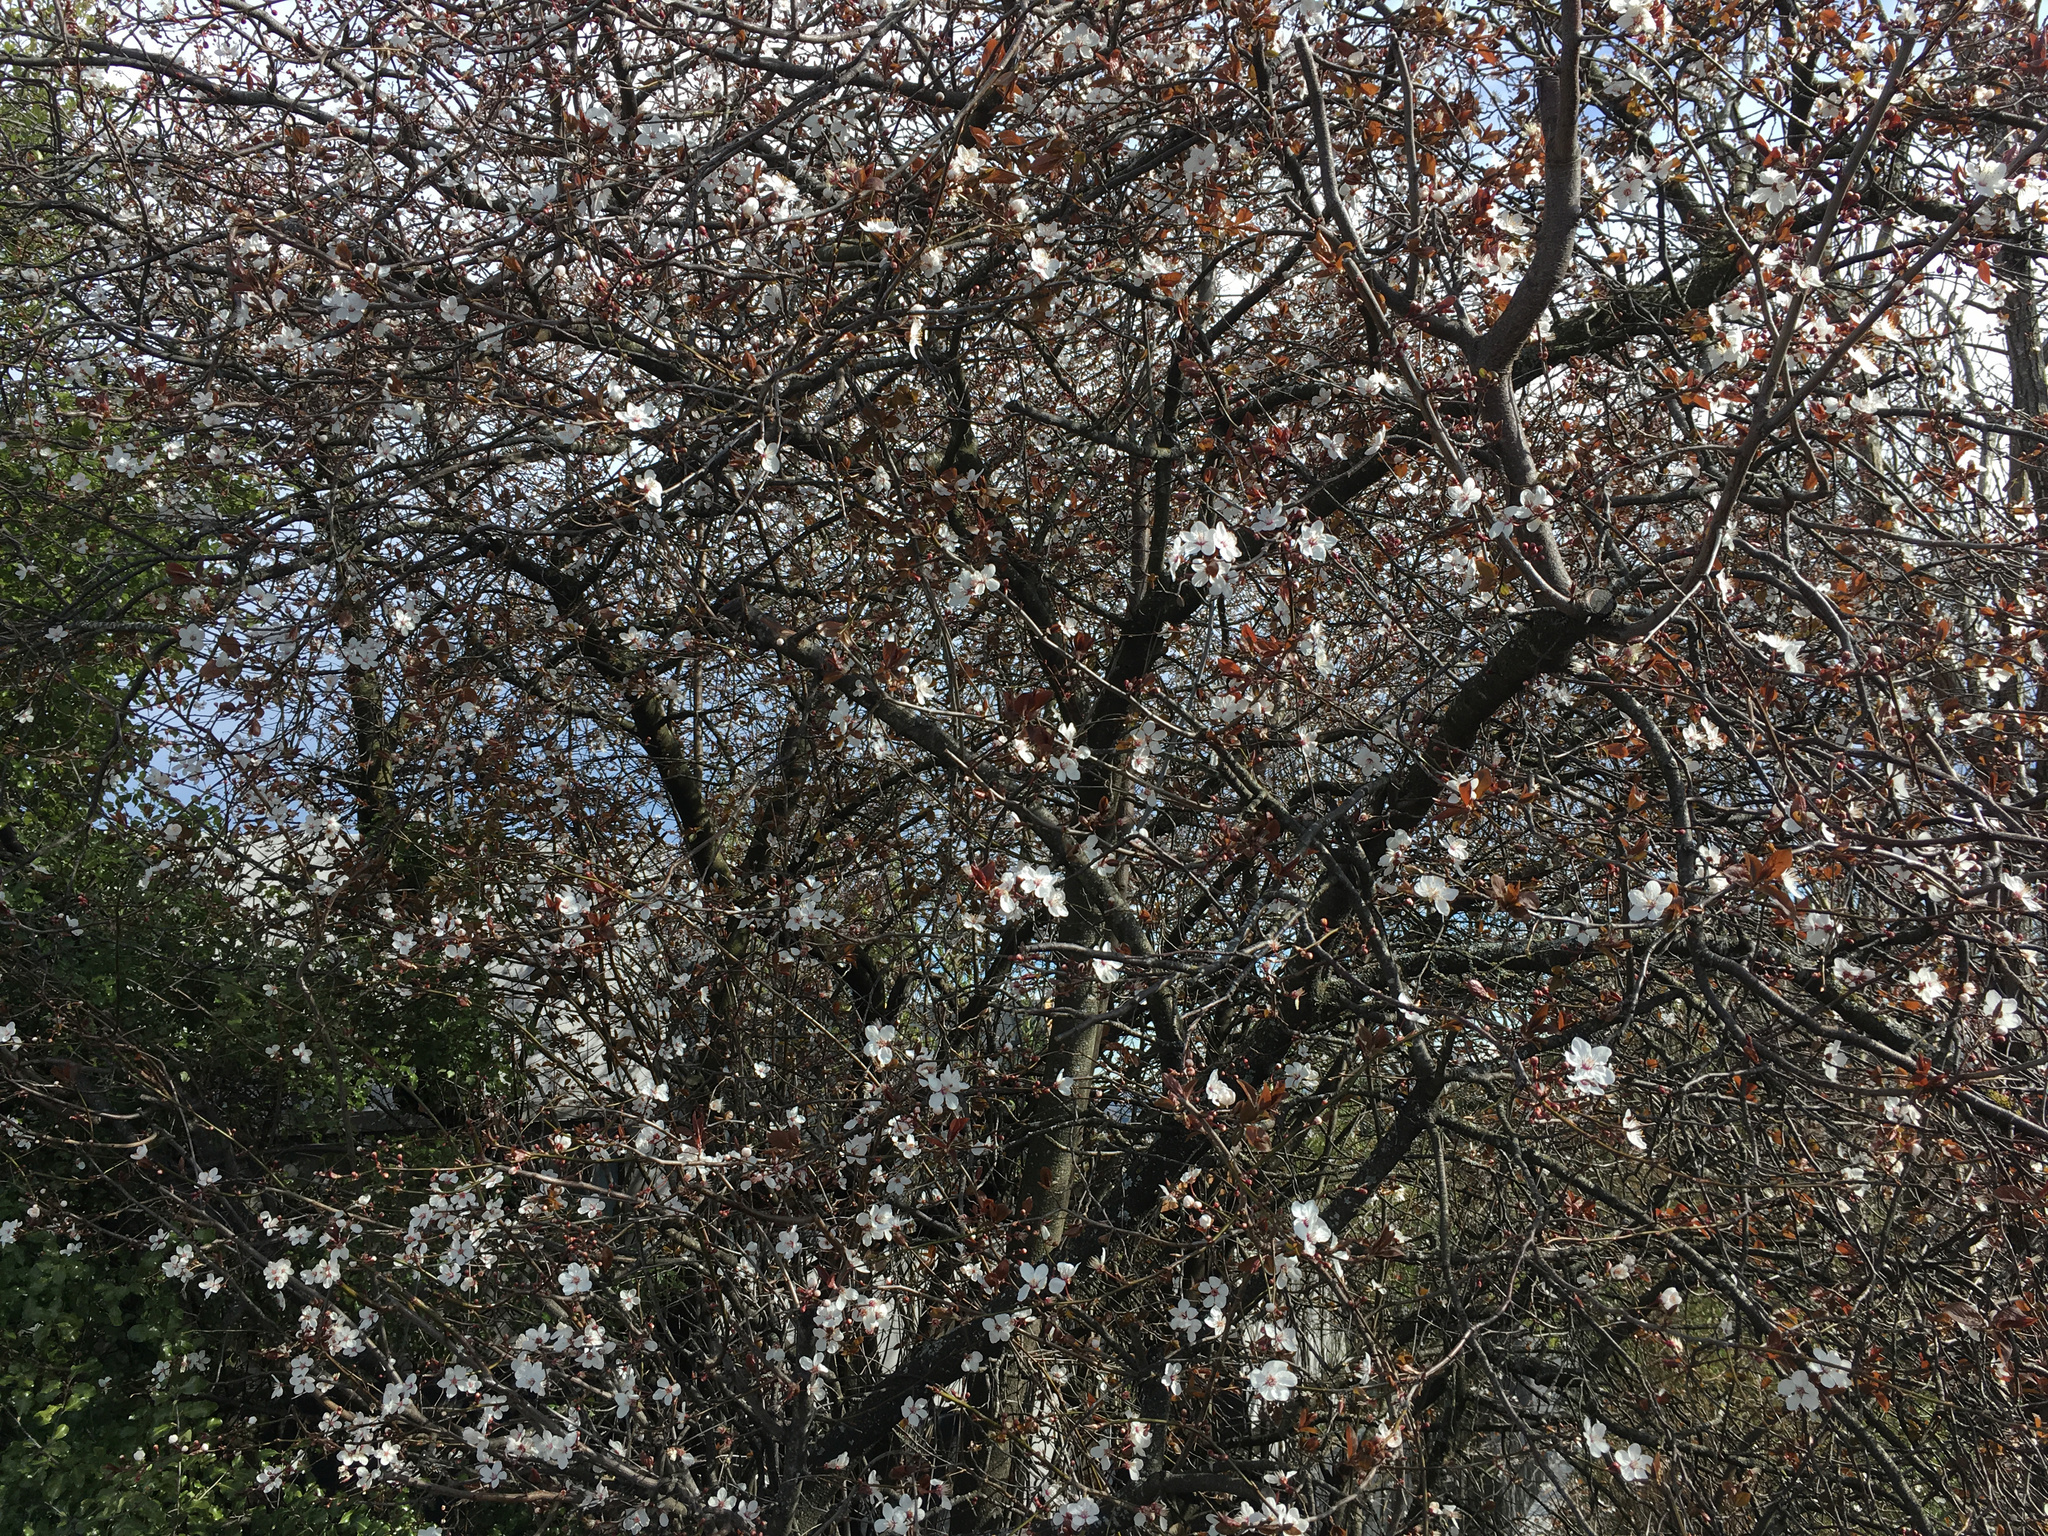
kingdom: Plantae
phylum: Tracheophyta
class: Magnoliopsida
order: Rosales
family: Rosaceae
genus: Prunus
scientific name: Prunus cerasifera
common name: Cherry plum
